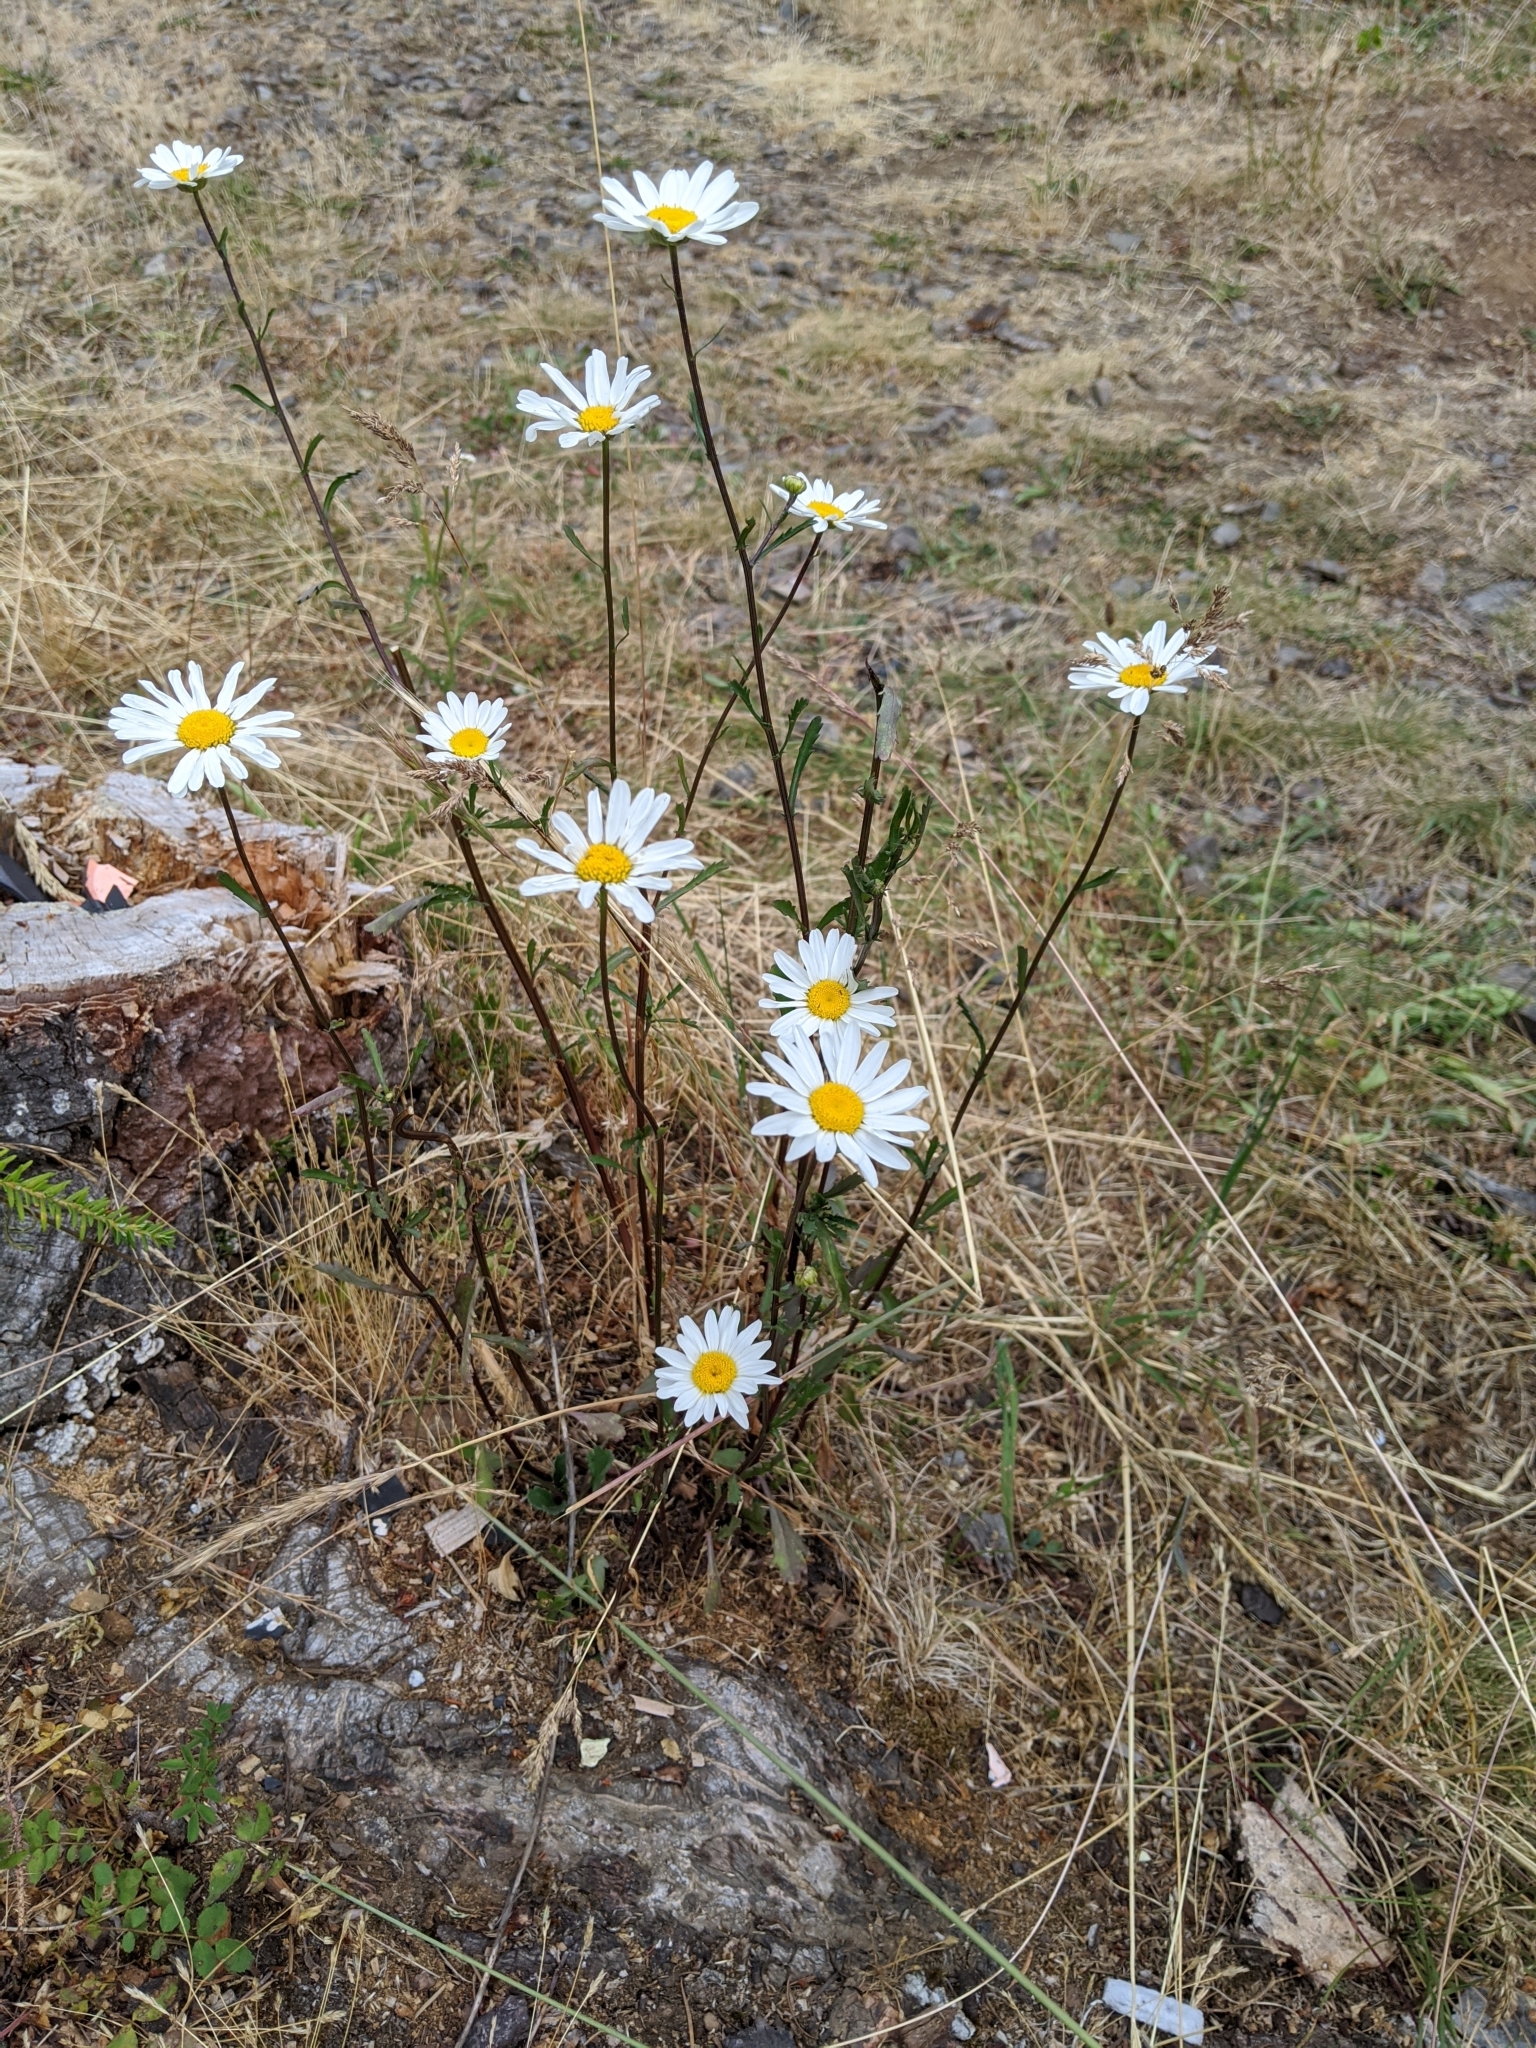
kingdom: Plantae
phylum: Tracheophyta
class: Magnoliopsida
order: Asterales
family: Asteraceae
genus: Leucanthemum
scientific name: Leucanthemum vulgare
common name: Oxeye daisy
